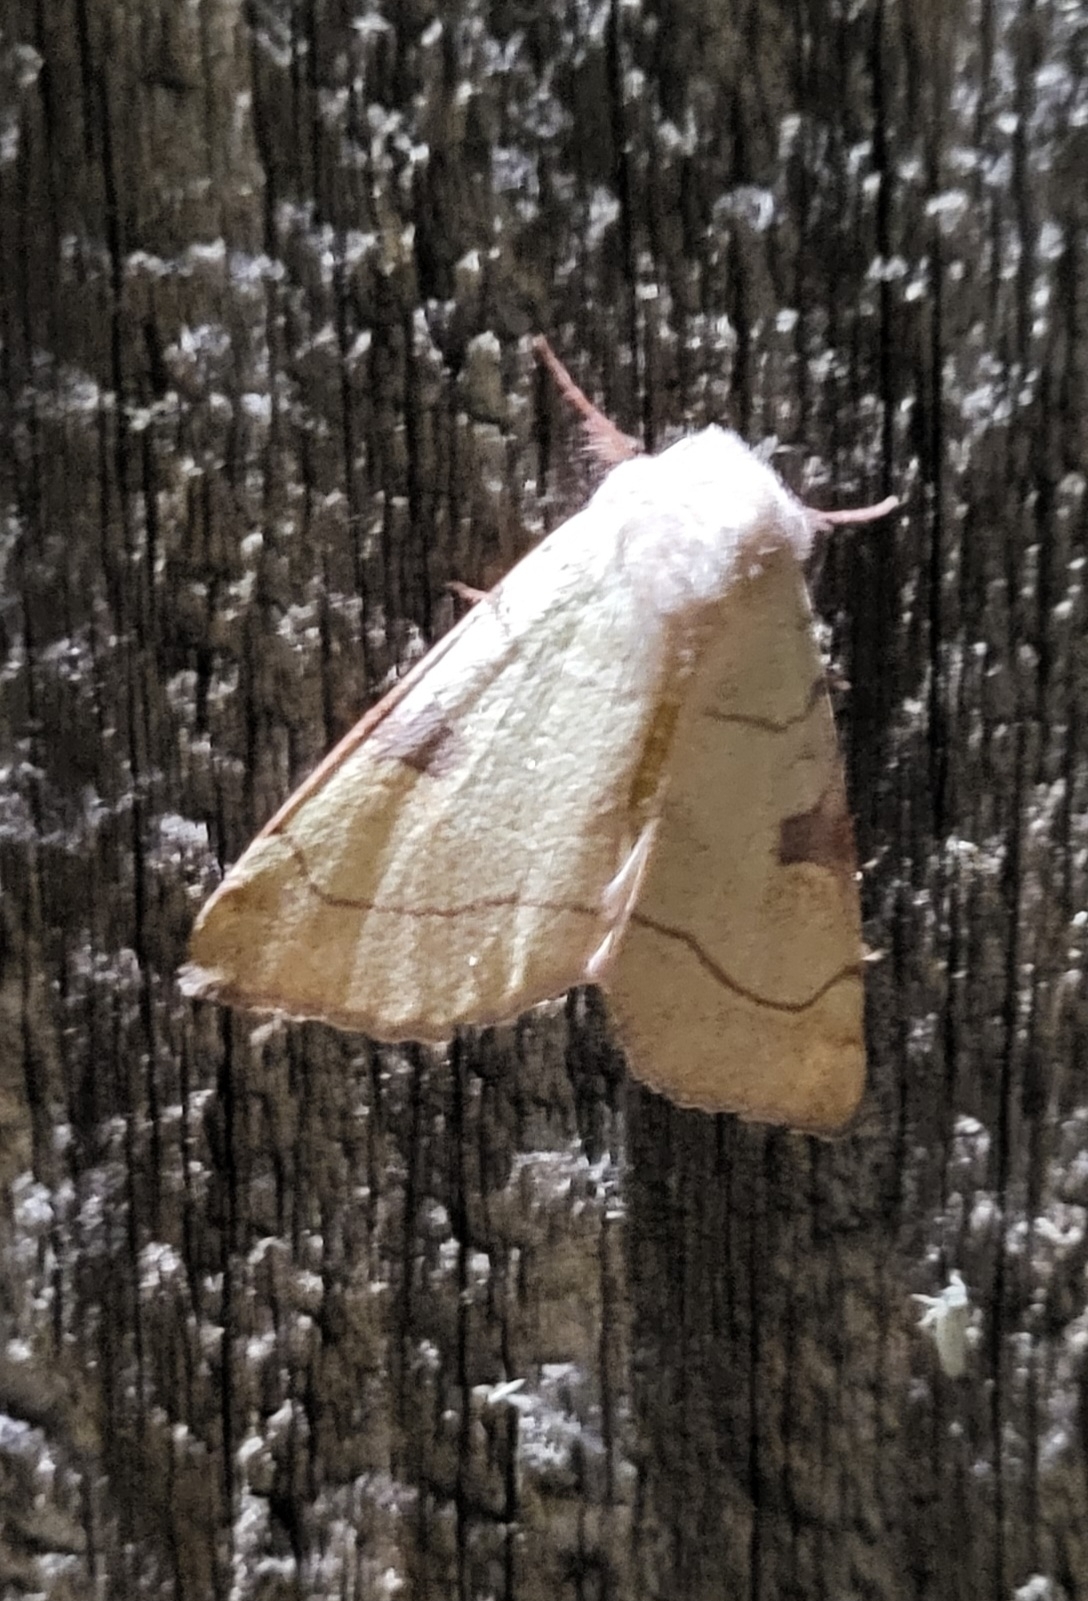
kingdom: Animalia
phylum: Arthropoda
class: Insecta
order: Lepidoptera
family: Noctuidae
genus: Choephora
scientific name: Choephora fungorum
